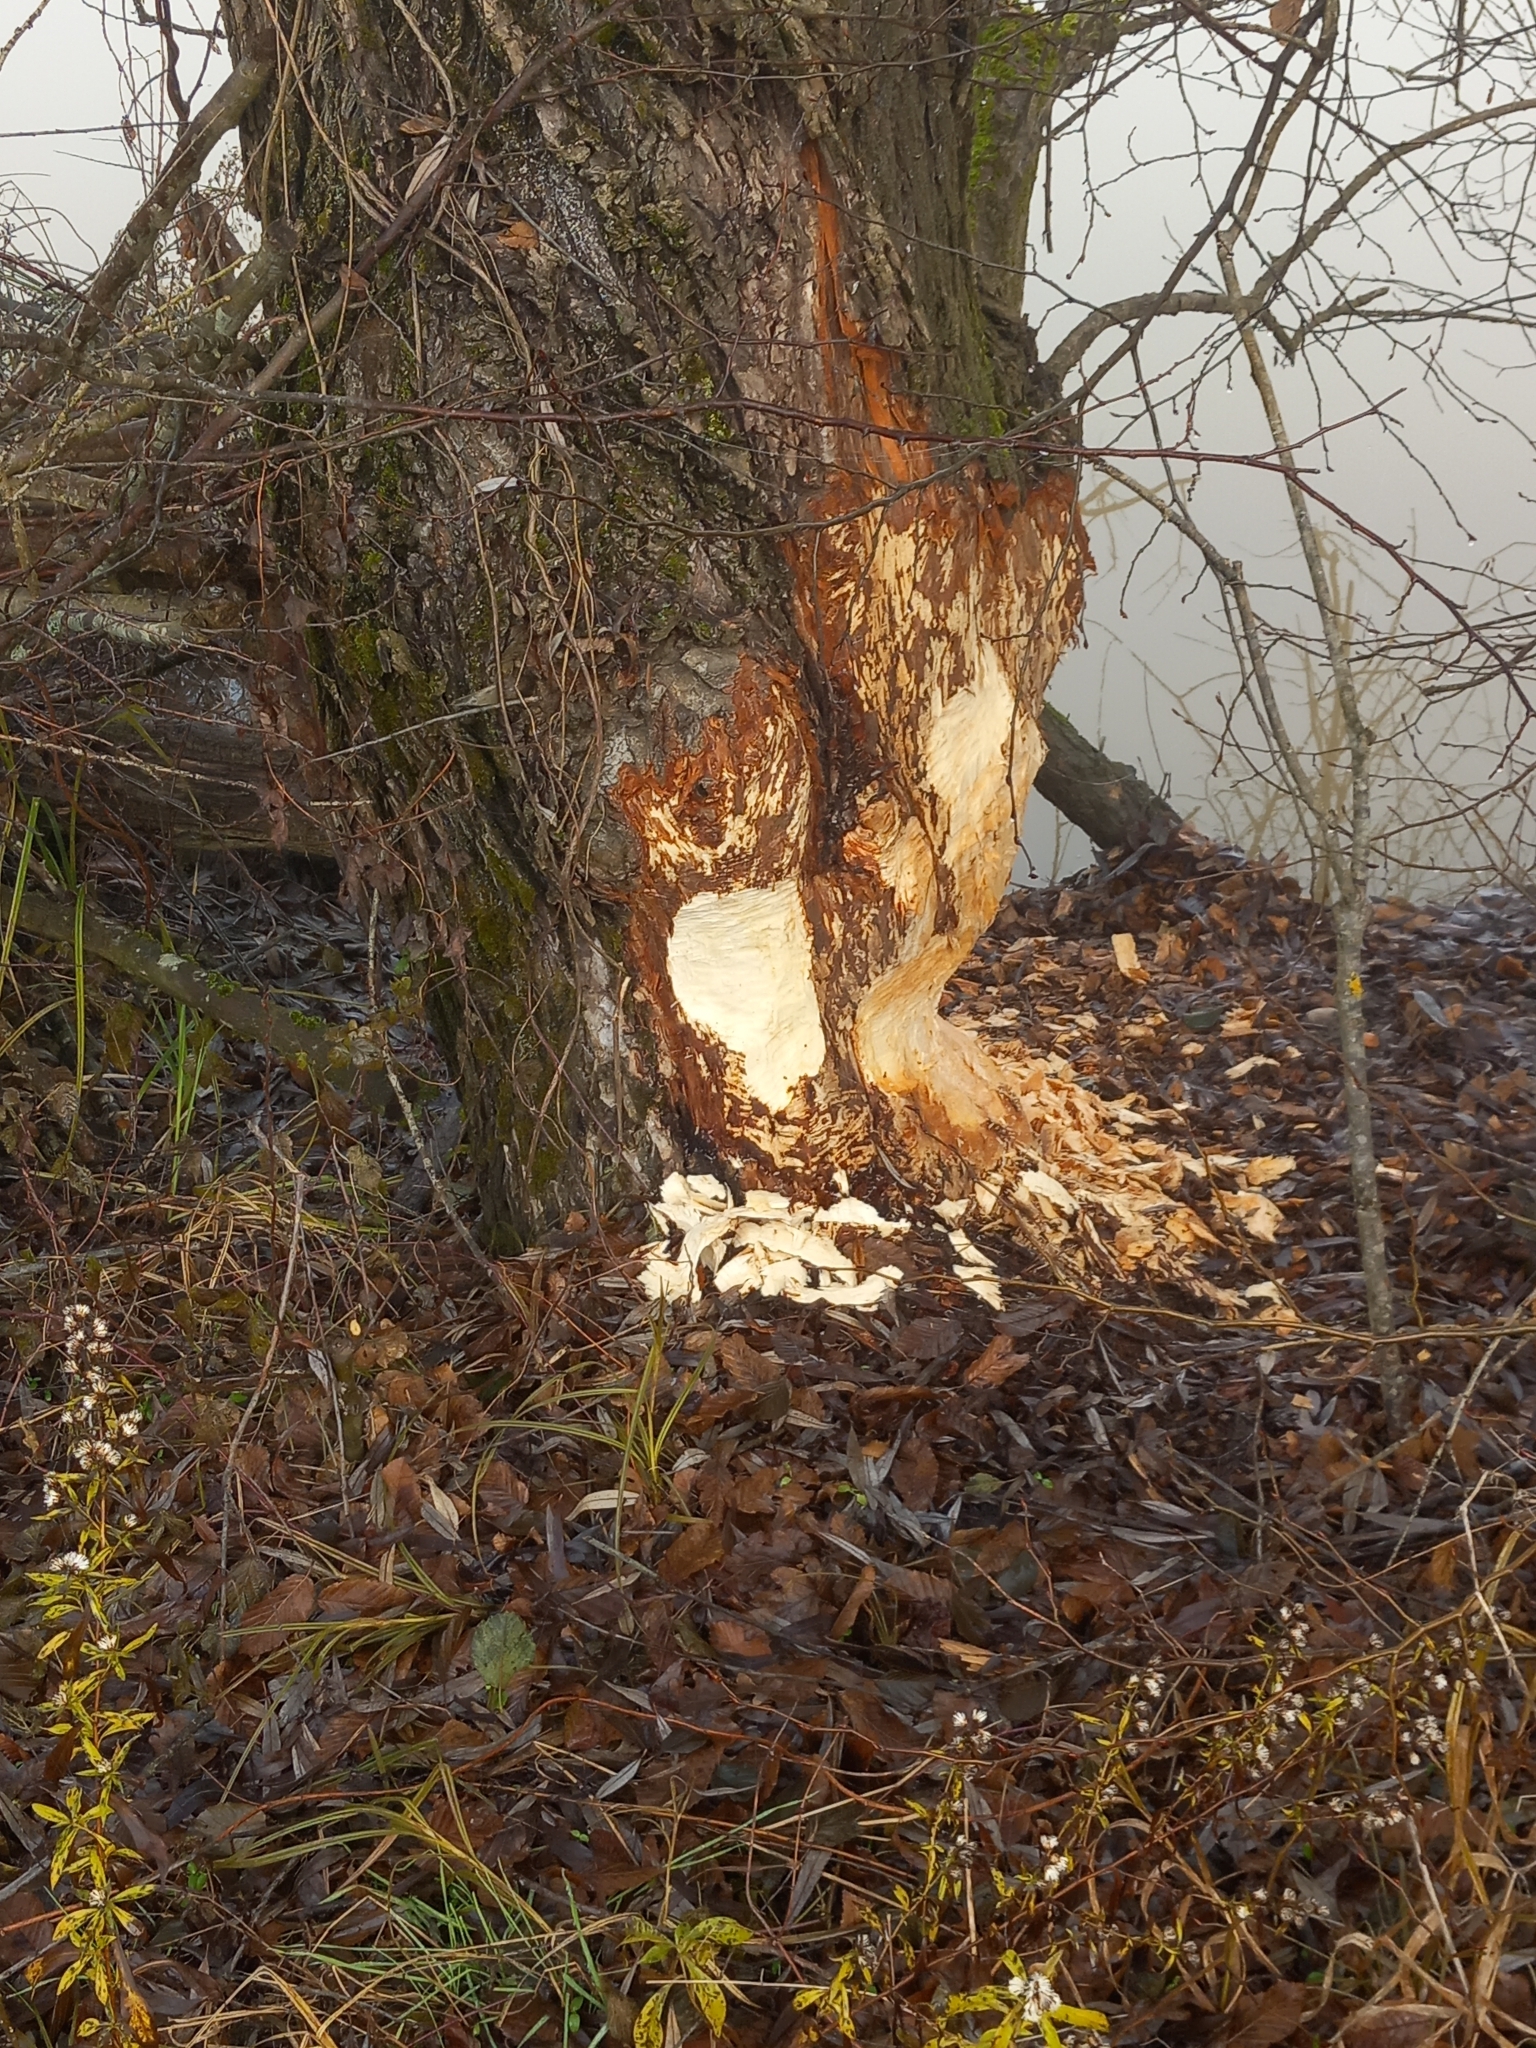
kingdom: Animalia
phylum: Chordata
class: Mammalia
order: Rodentia
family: Castoridae
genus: Castor
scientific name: Castor fiber
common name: Eurasian beaver
